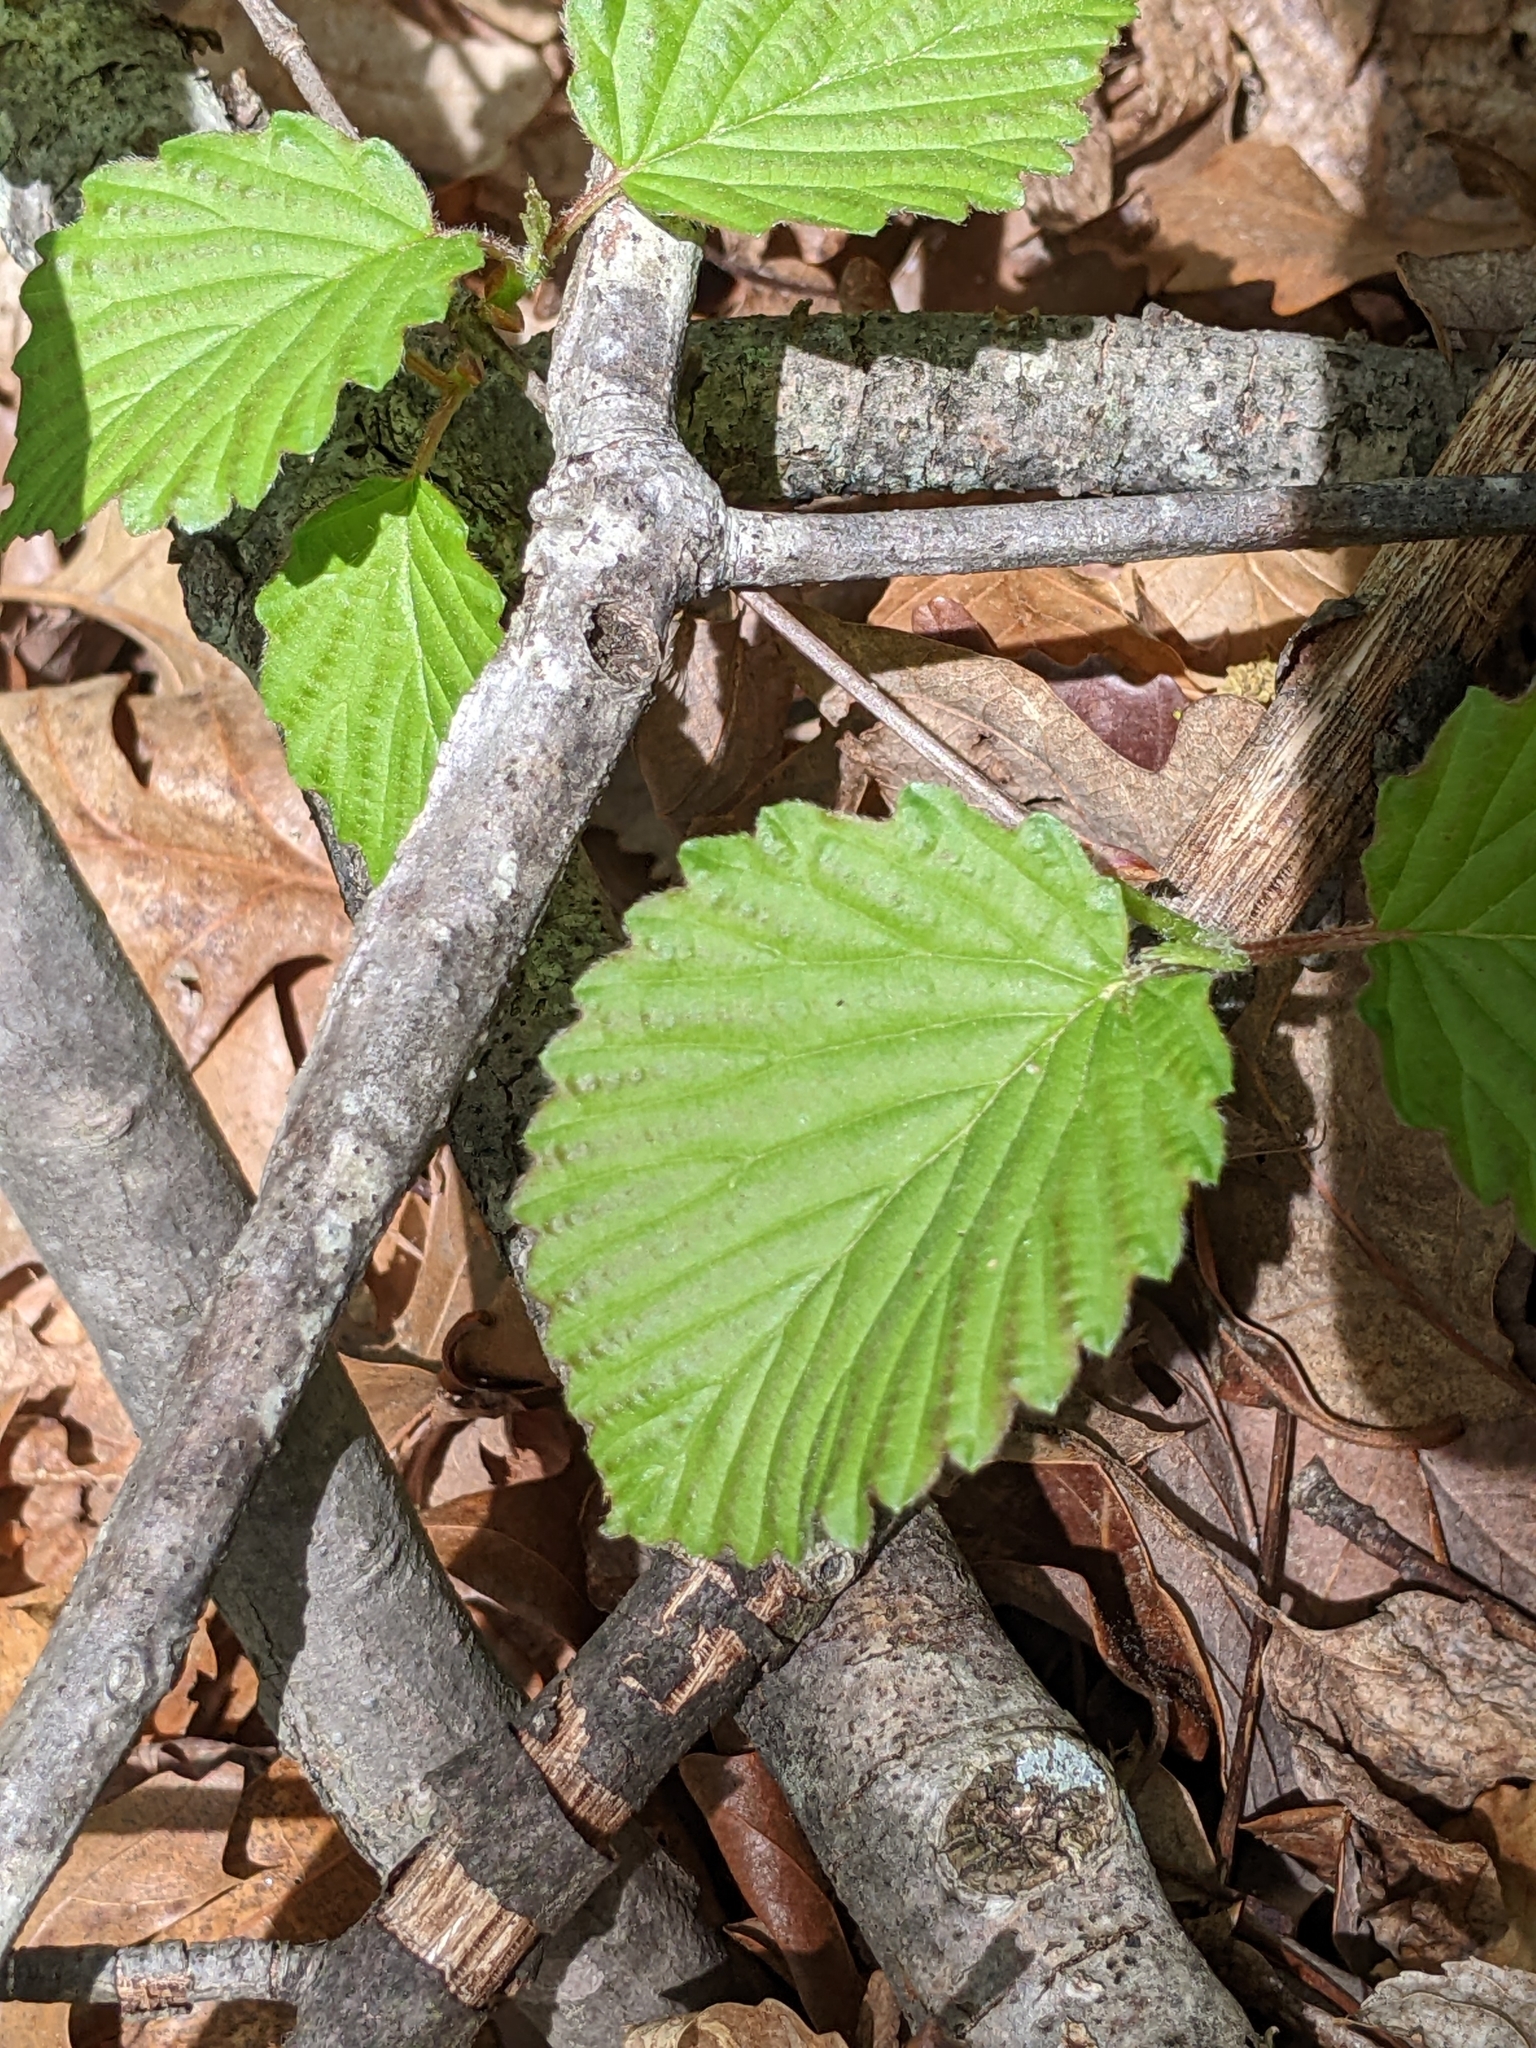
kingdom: Plantae
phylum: Tracheophyta
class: Magnoliopsida
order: Dipsacales
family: Viburnaceae
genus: Viburnum
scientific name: Viburnum dentatum
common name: Arrow-wood
